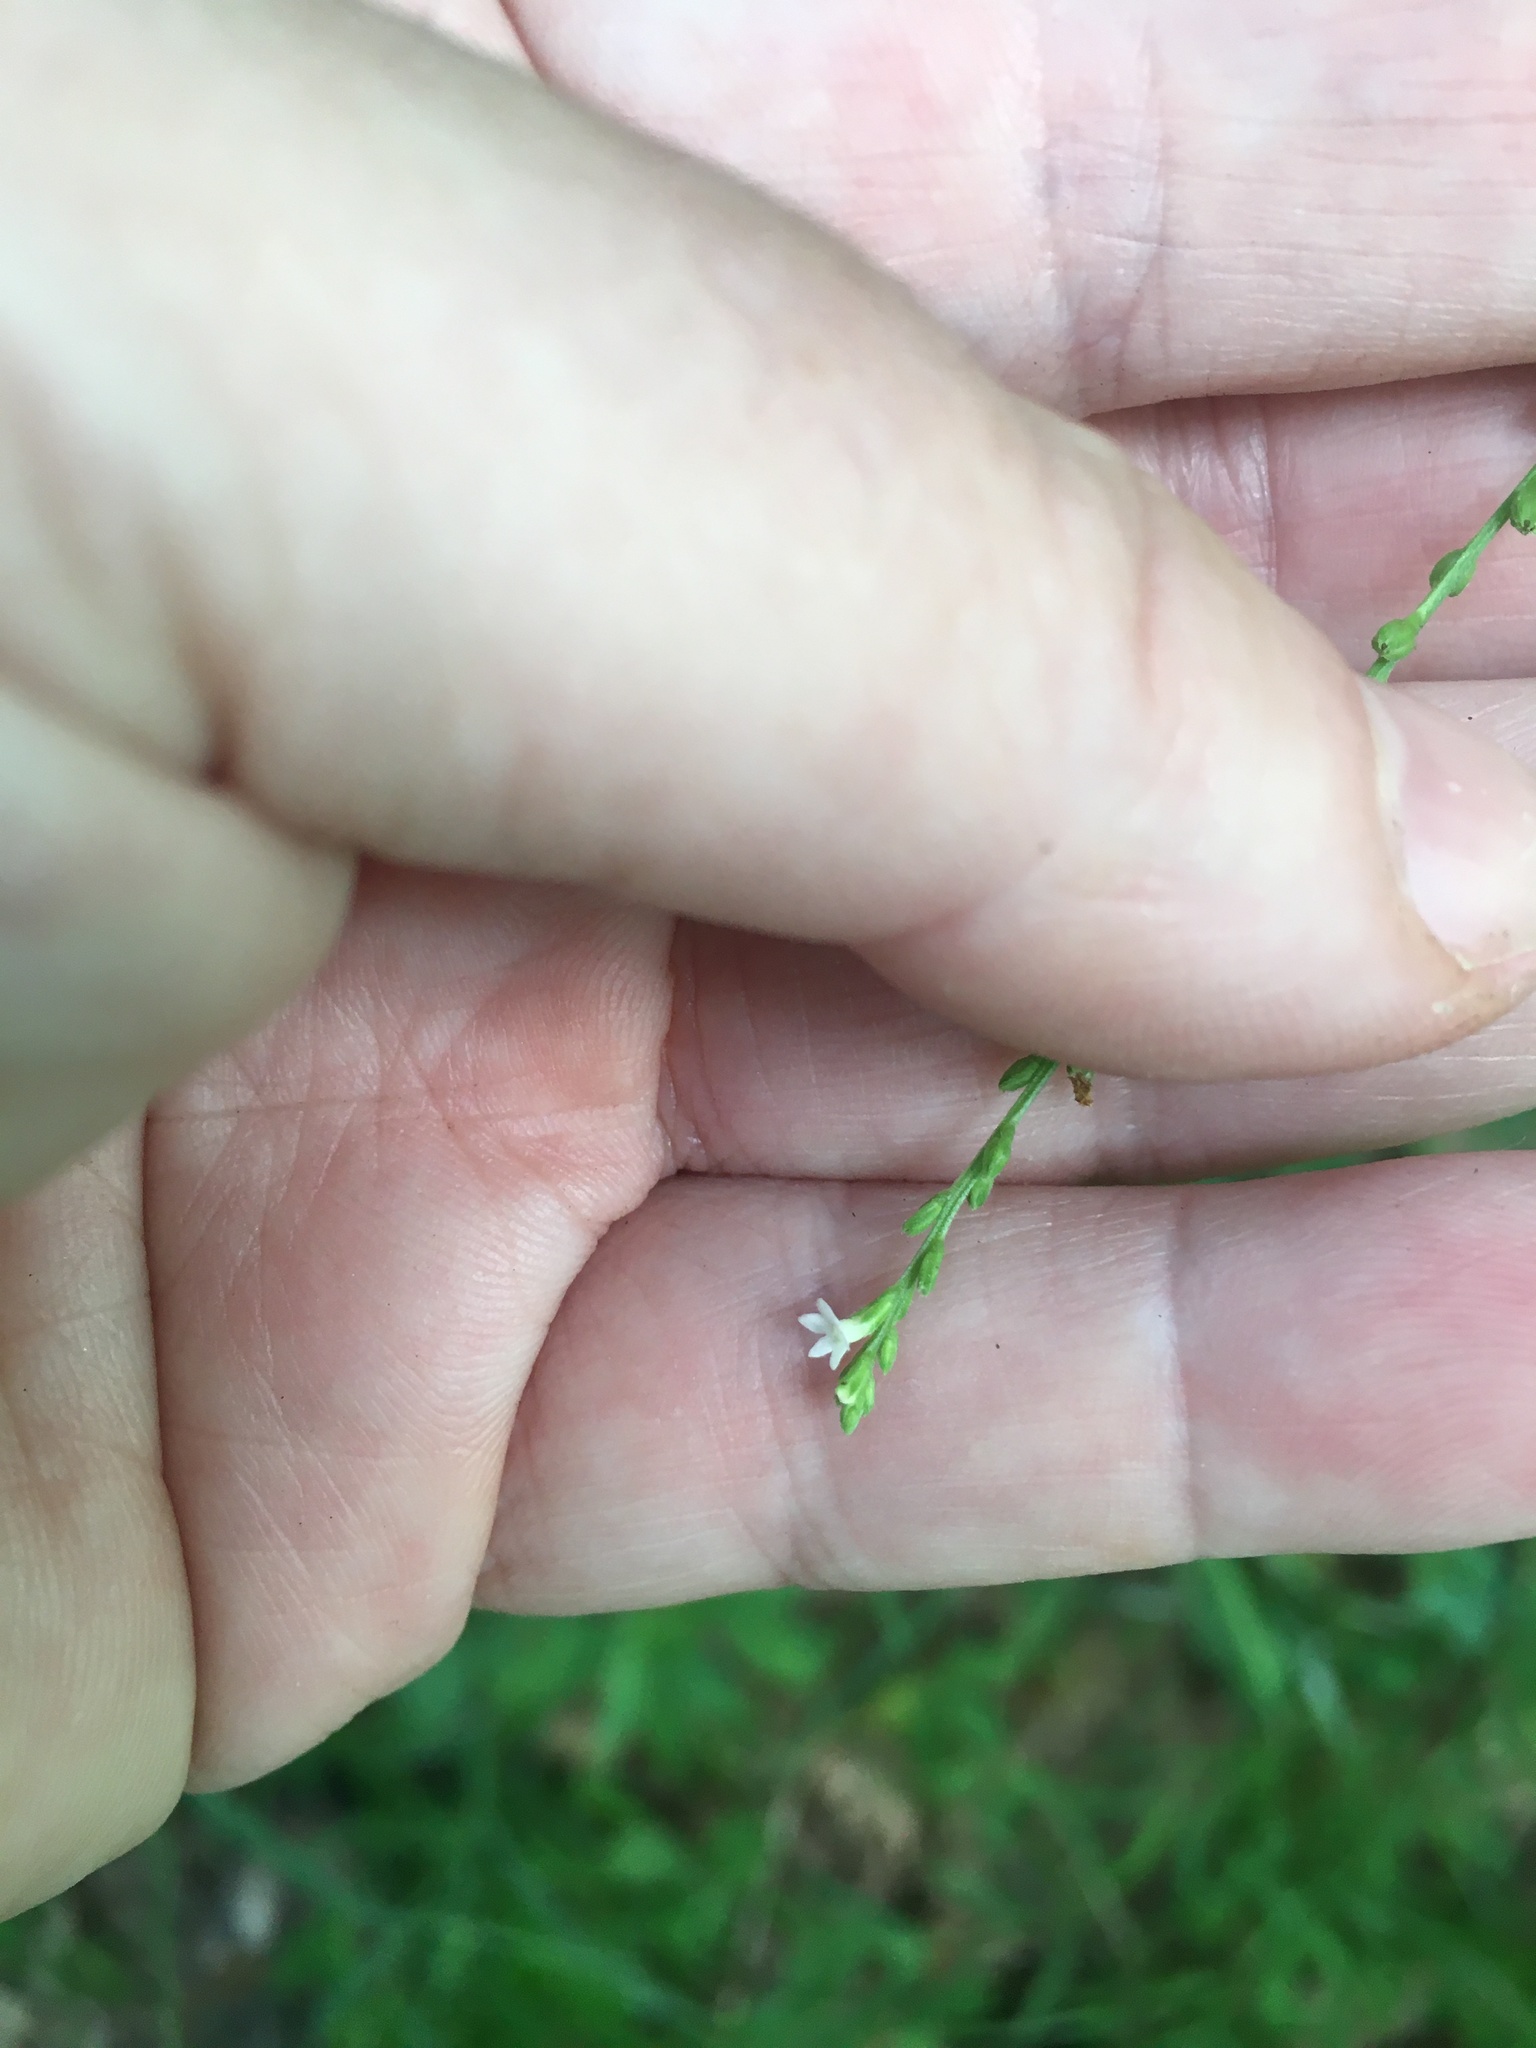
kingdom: Plantae
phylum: Tracheophyta
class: Magnoliopsida
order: Lamiales
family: Verbenaceae
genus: Verbena
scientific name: Verbena urticifolia
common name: Nettle-leaved vervain
